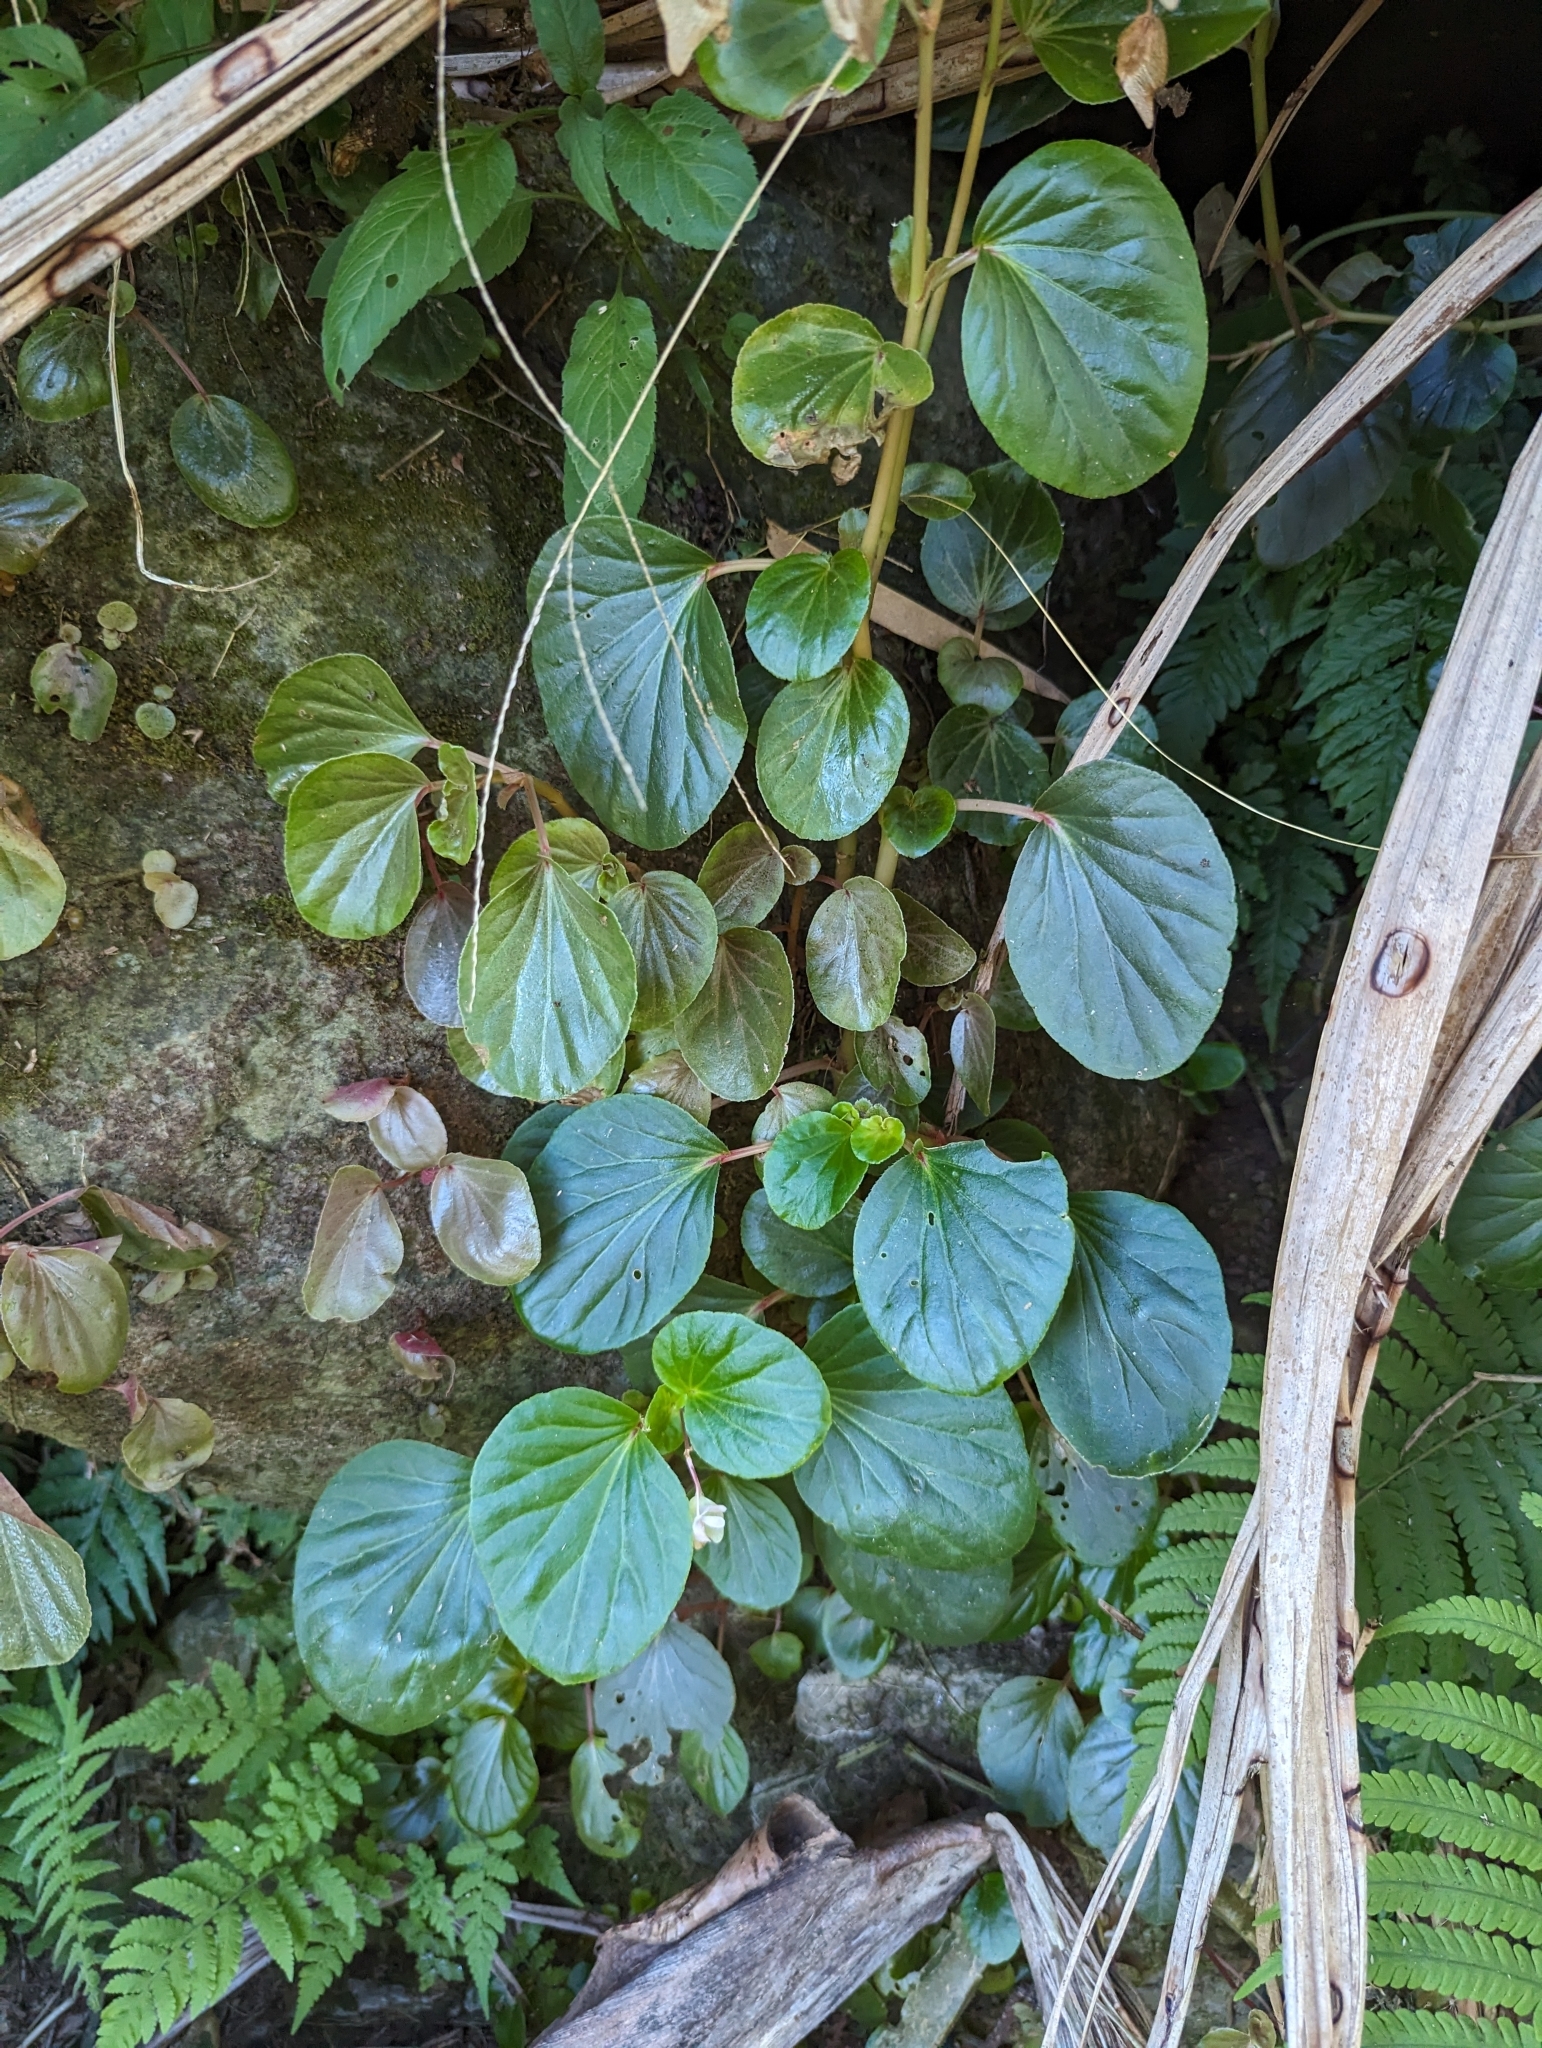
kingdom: Plantae
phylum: Tracheophyta
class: Magnoliopsida
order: Cucurbitales
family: Begoniaceae
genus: Begonia
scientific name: Begonia cucullata
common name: Clubbed begonia
